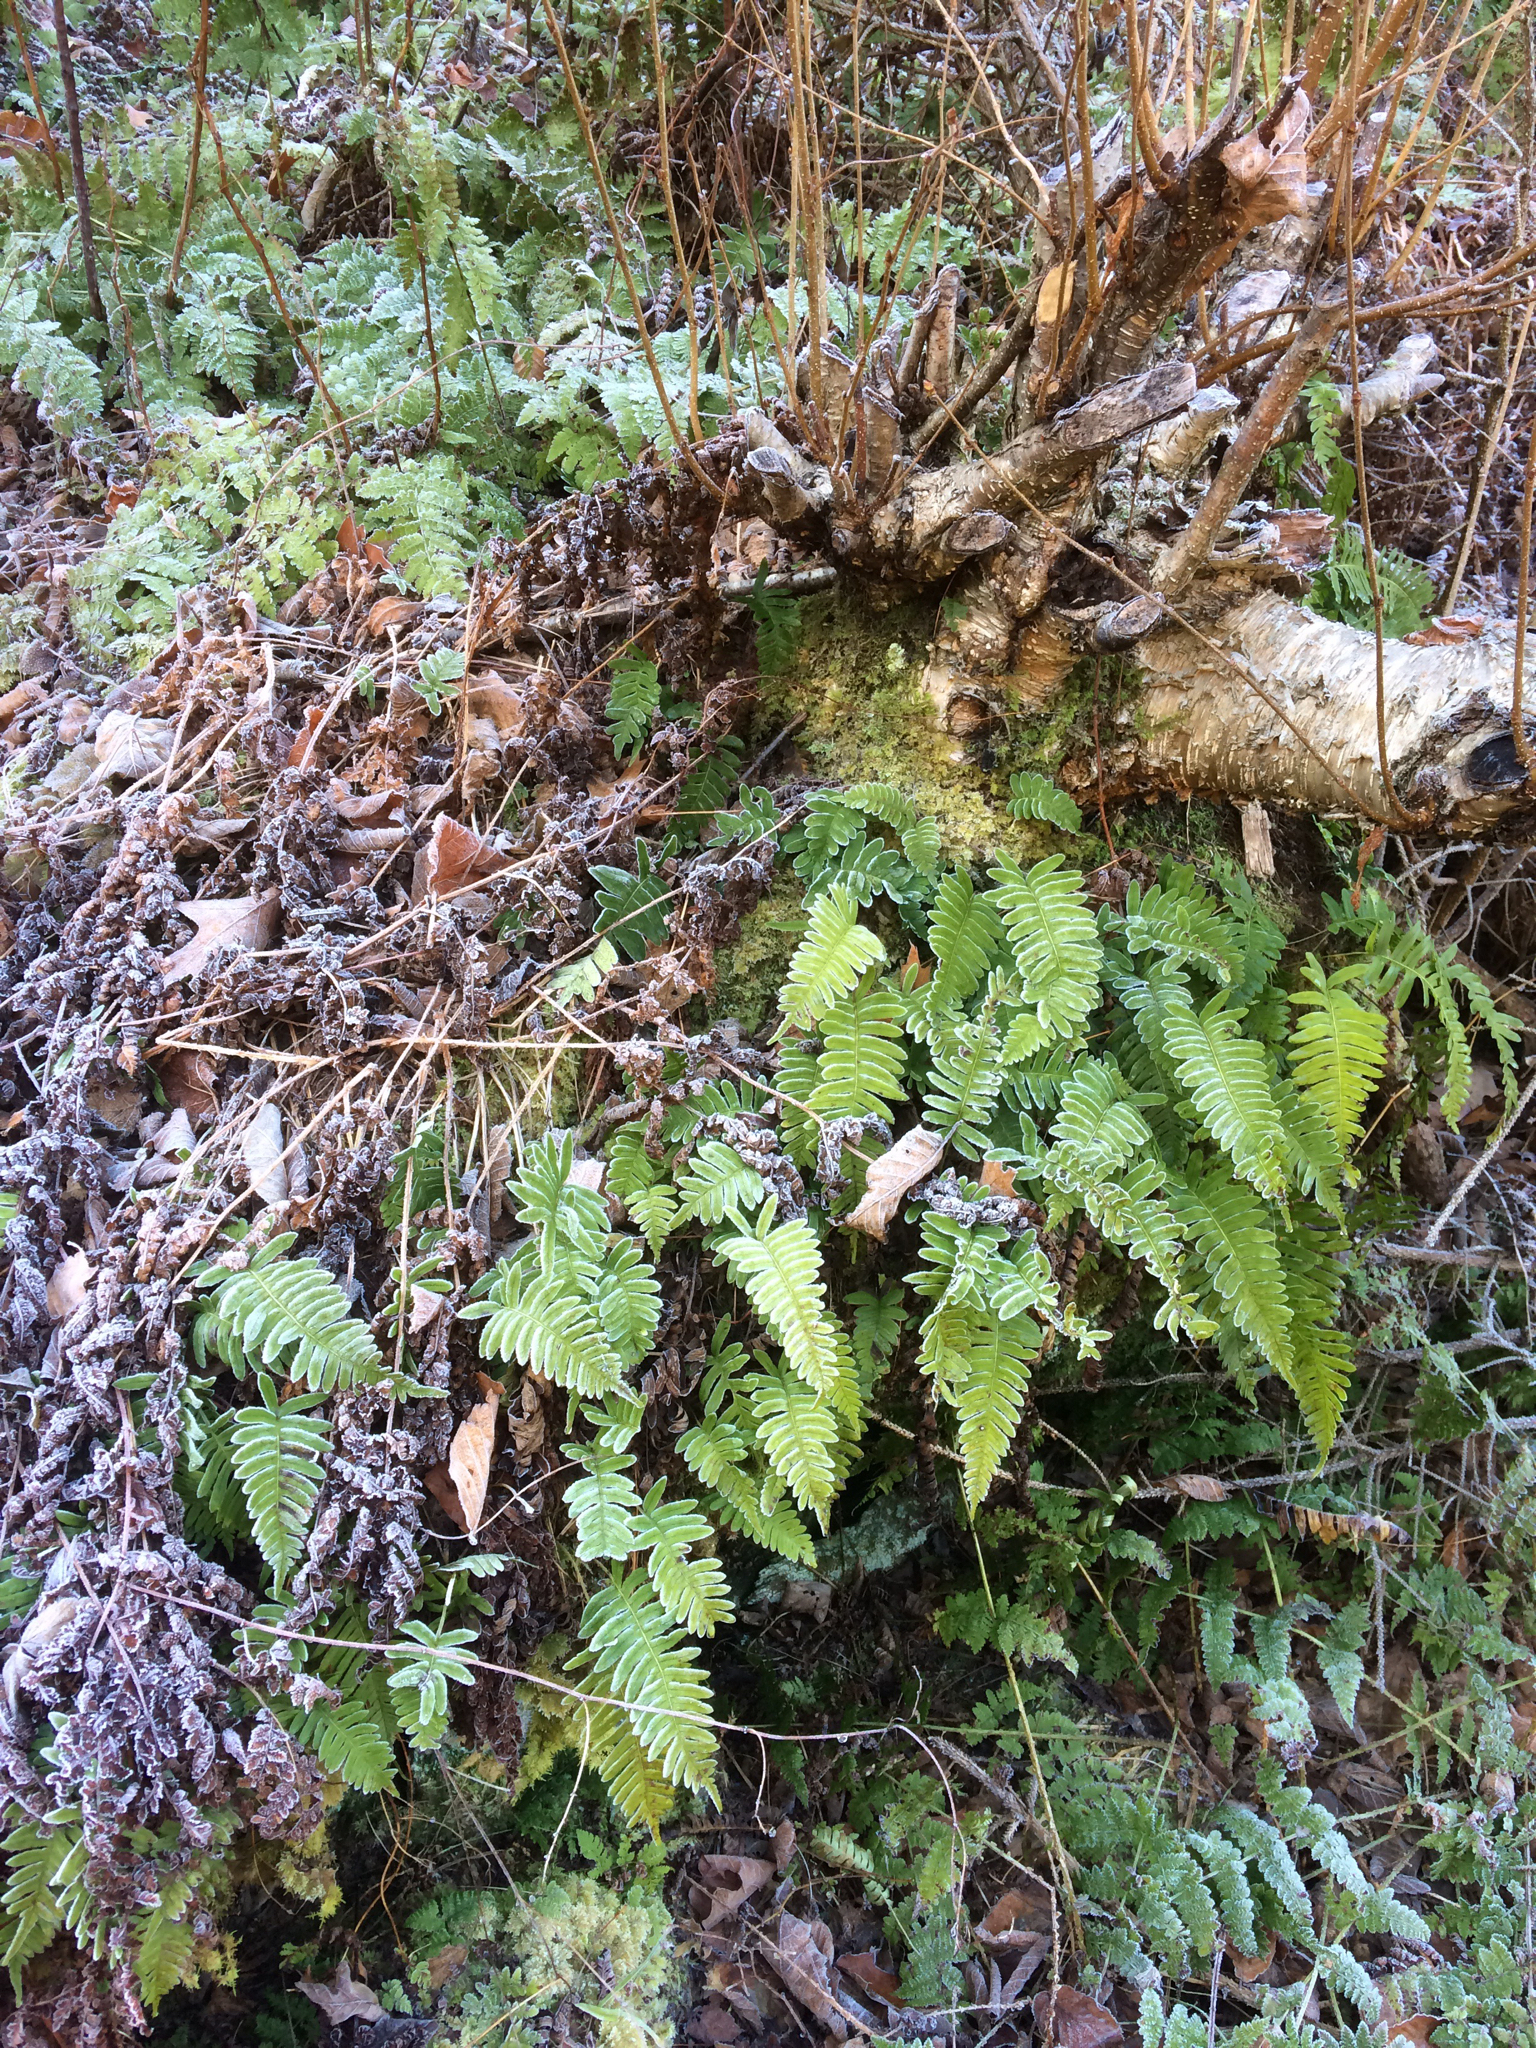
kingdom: Plantae
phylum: Tracheophyta
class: Polypodiopsida
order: Polypodiales
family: Polypodiaceae
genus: Polypodium
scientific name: Polypodium virginianum
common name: American wall fern
